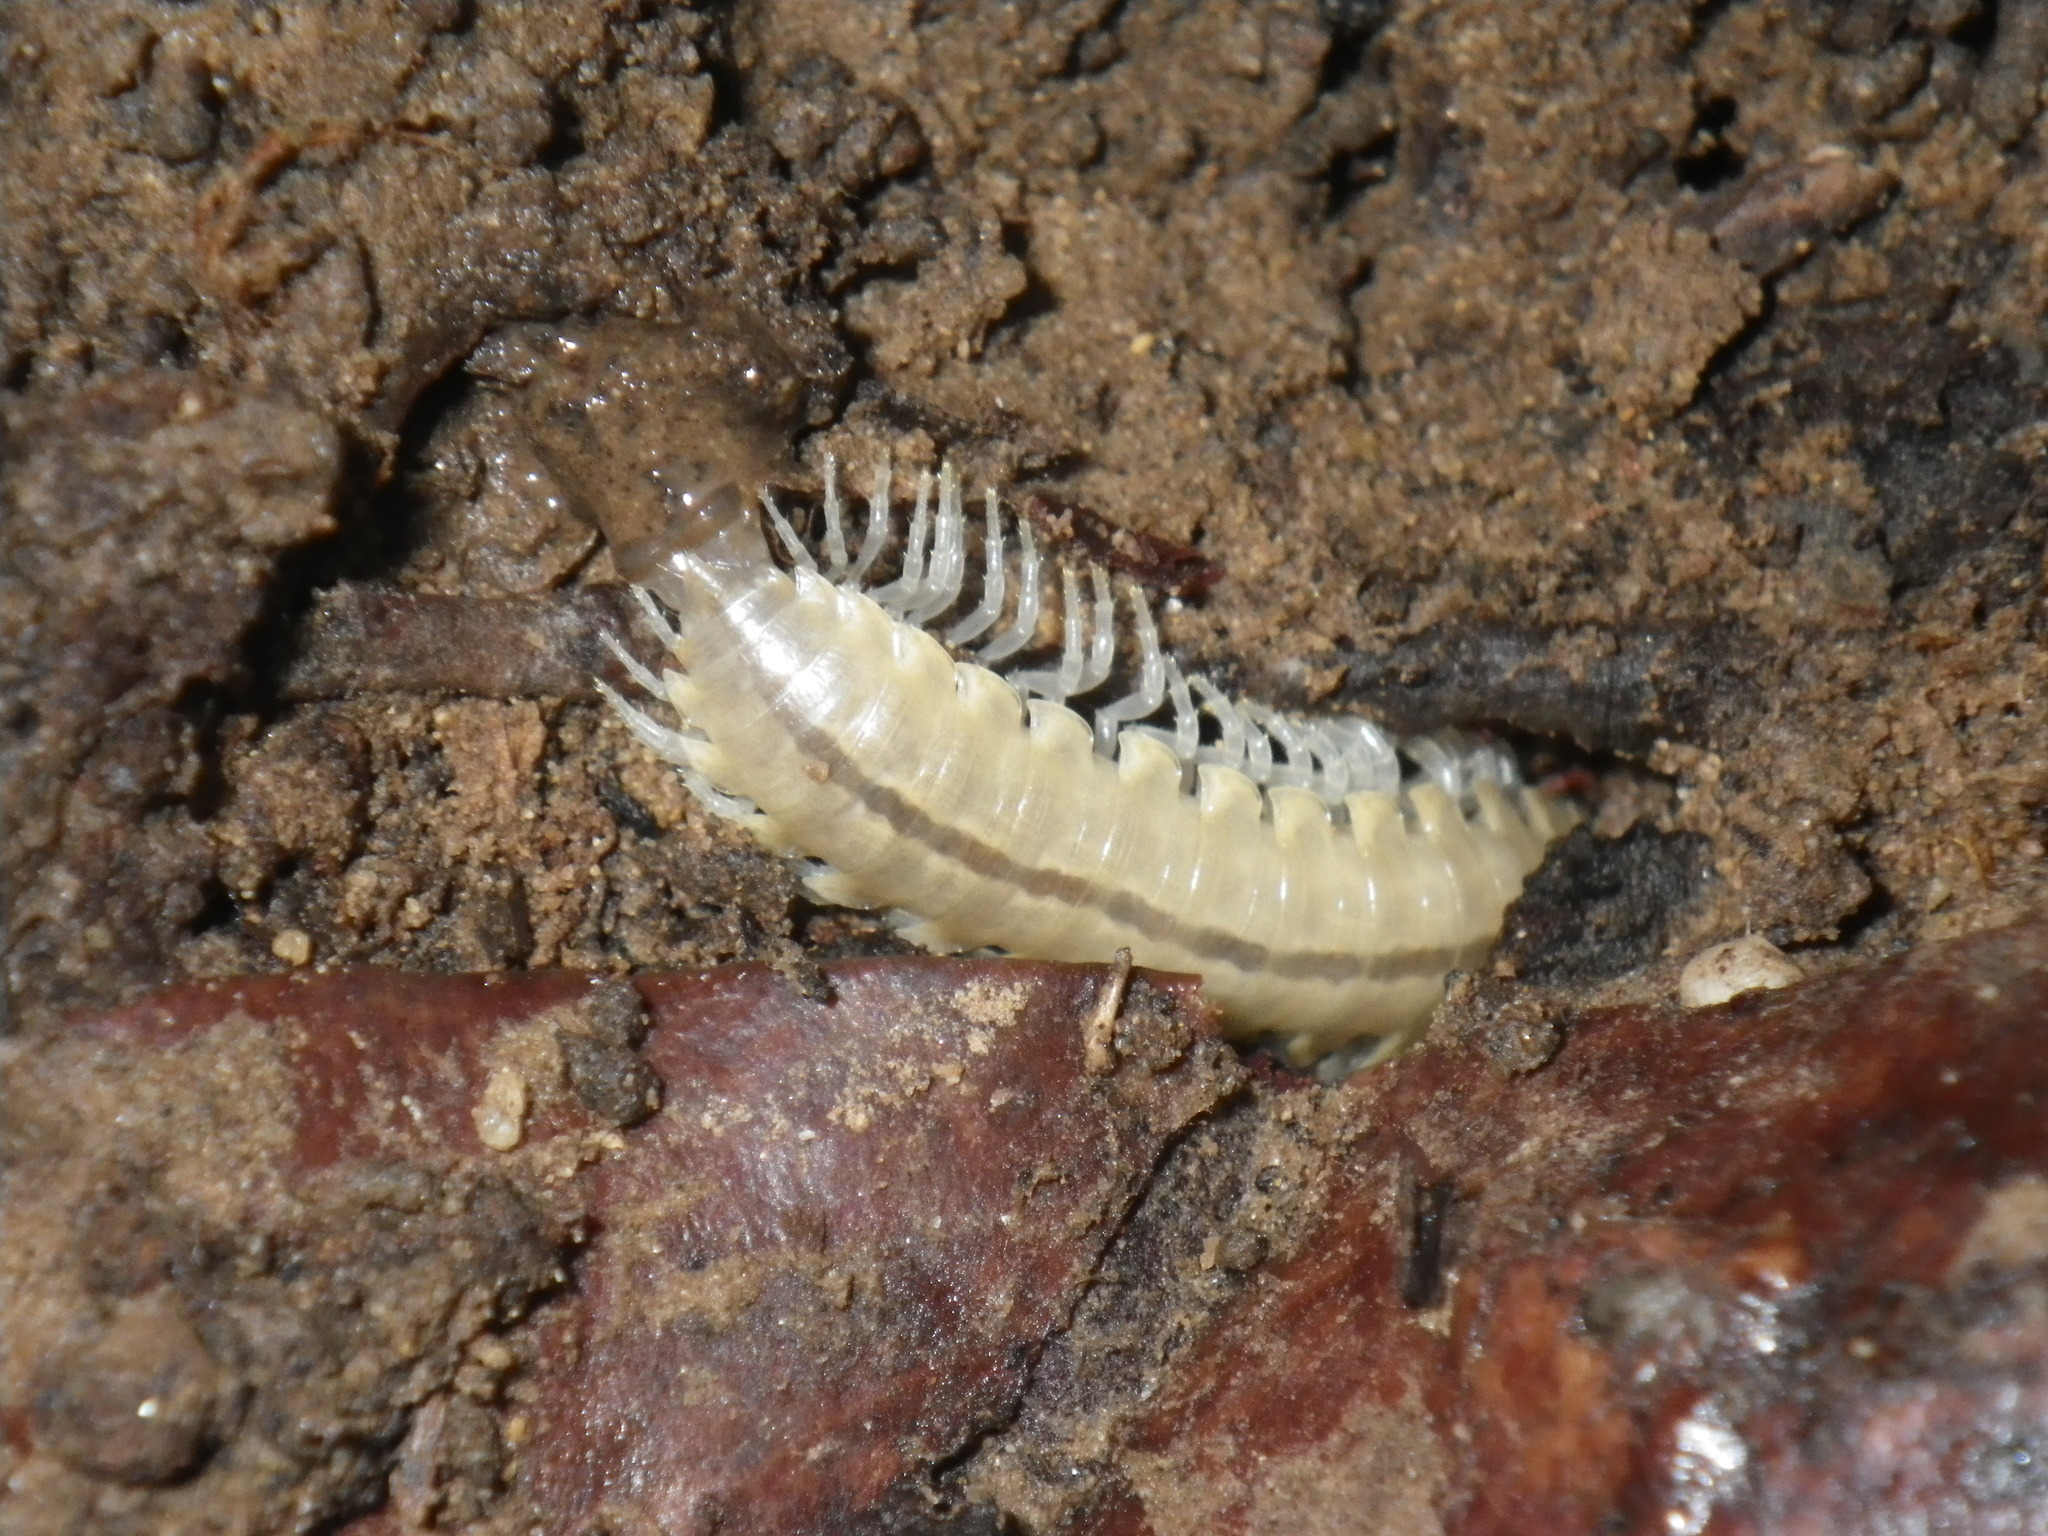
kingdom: Animalia
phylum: Arthropoda
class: Diplopoda
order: Polydesmida
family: Xystodesmidae
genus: Xystocheir
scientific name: Xystocheir dissecta
